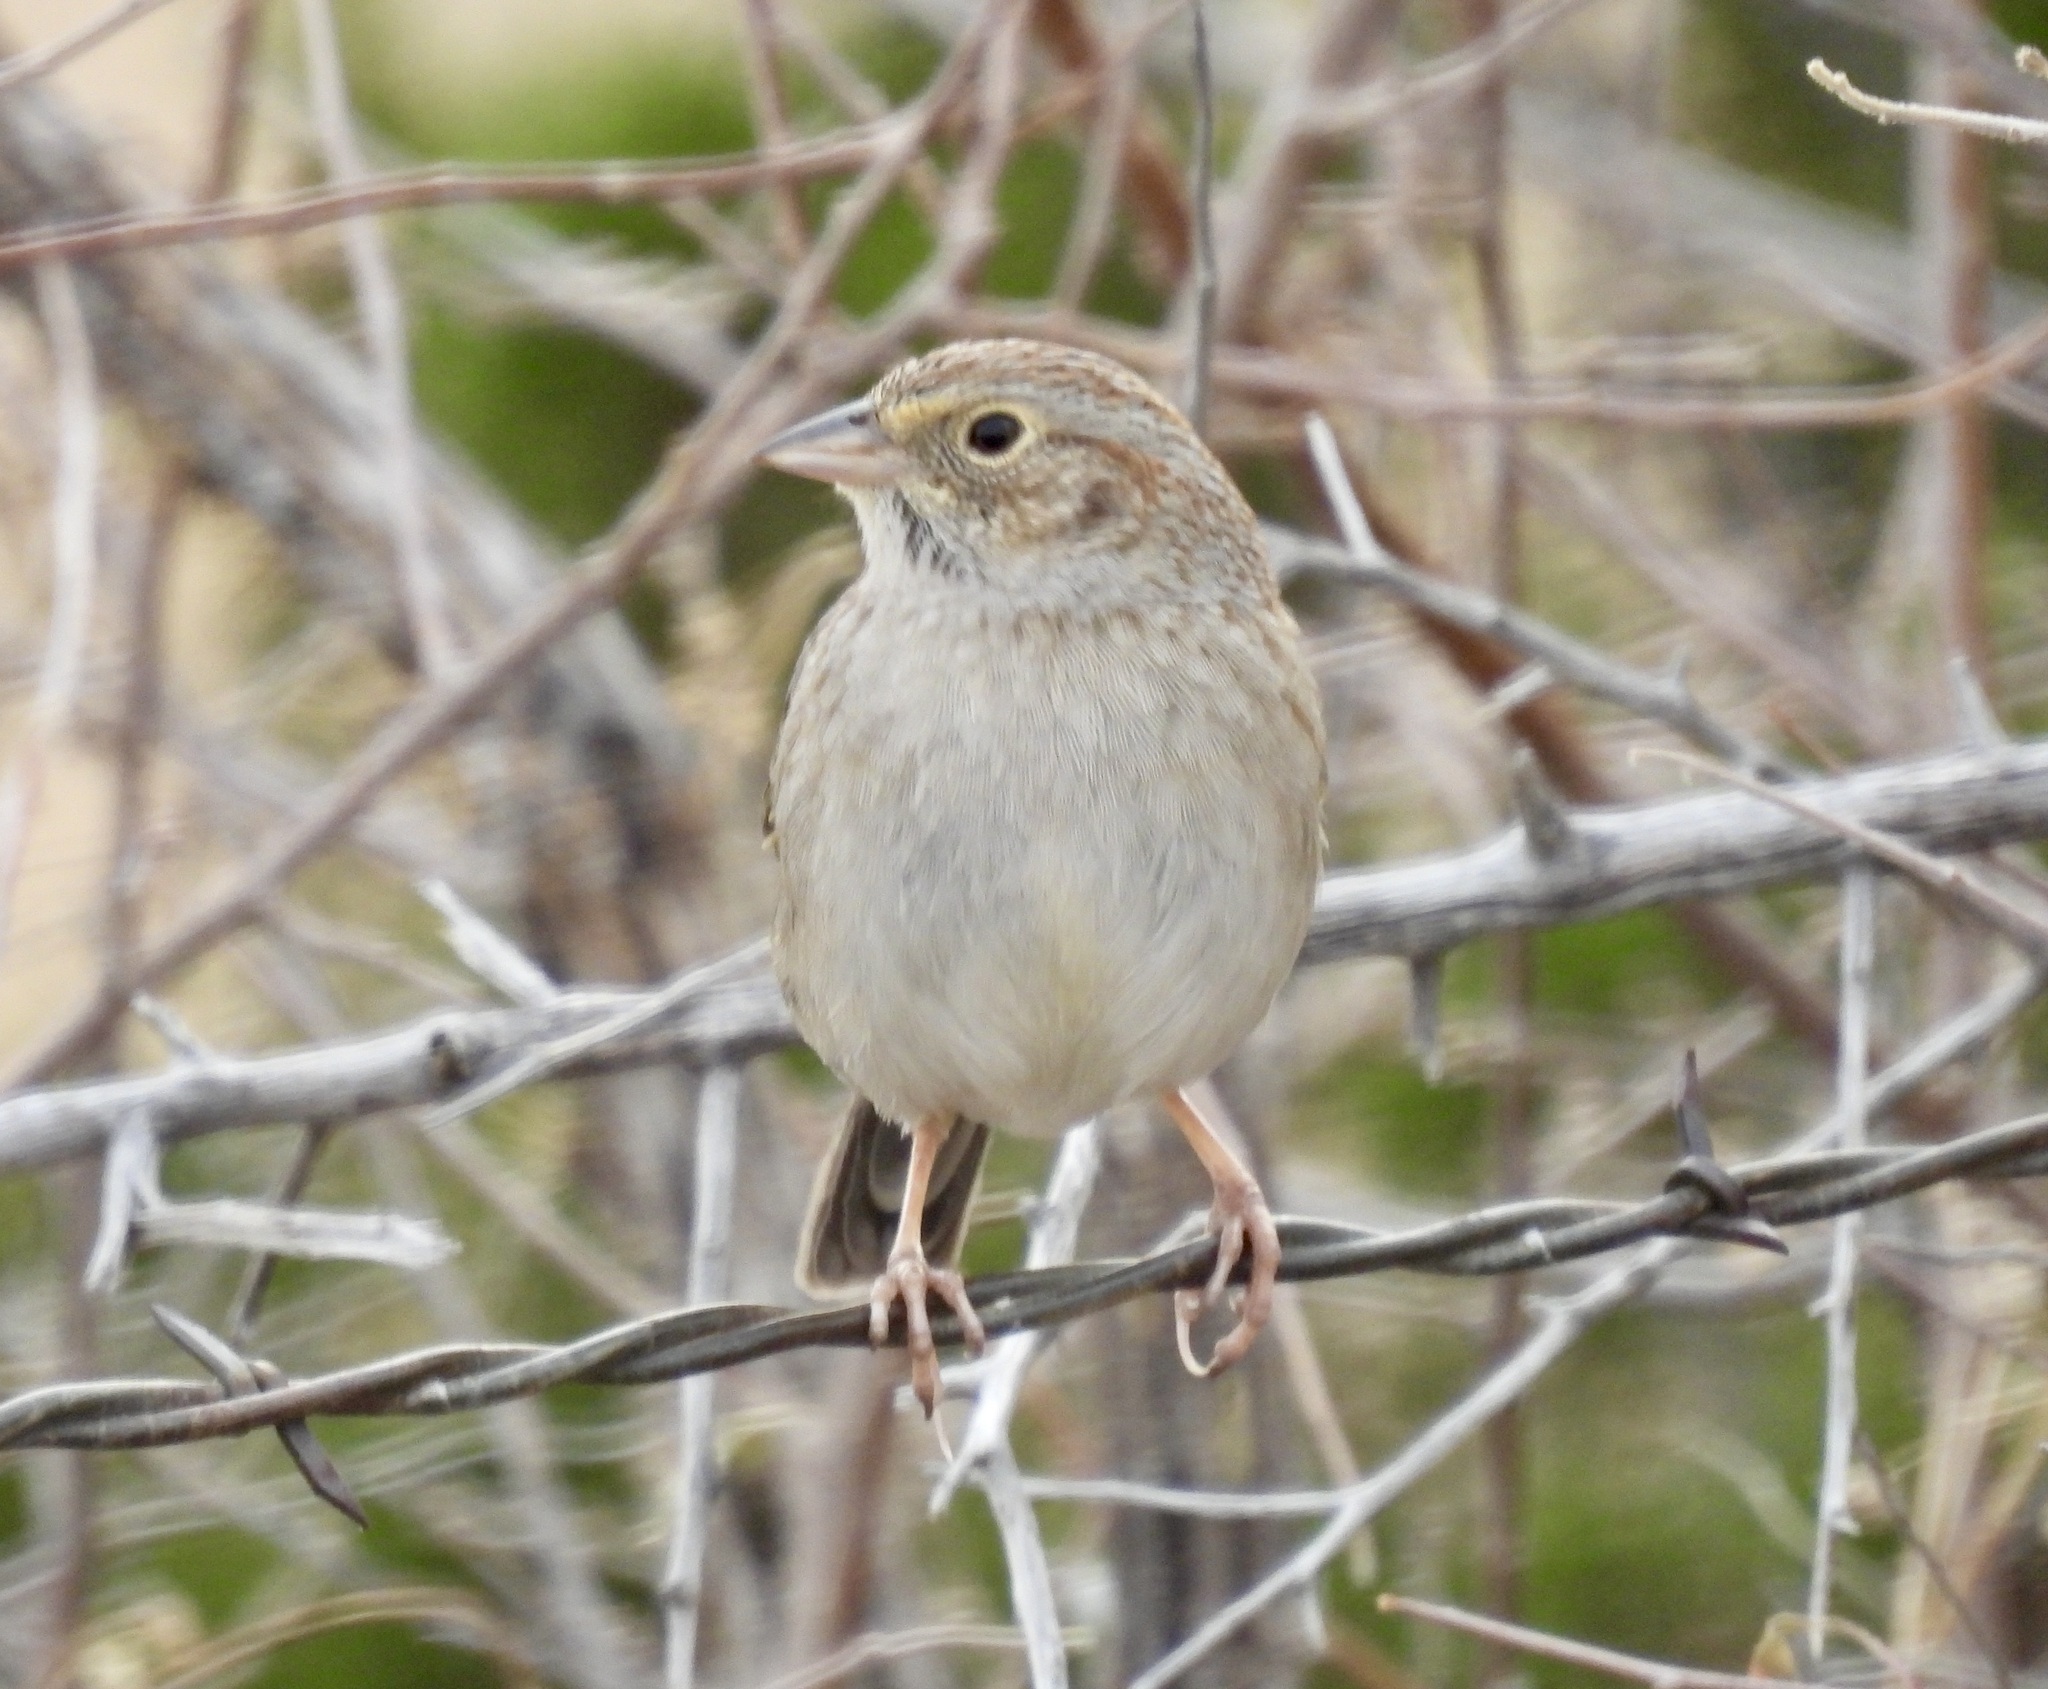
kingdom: Animalia
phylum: Chordata
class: Aves
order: Passeriformes
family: Passerellidae
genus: Peucaea
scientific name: Peucaea cassinii
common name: Cassin's sparrow
